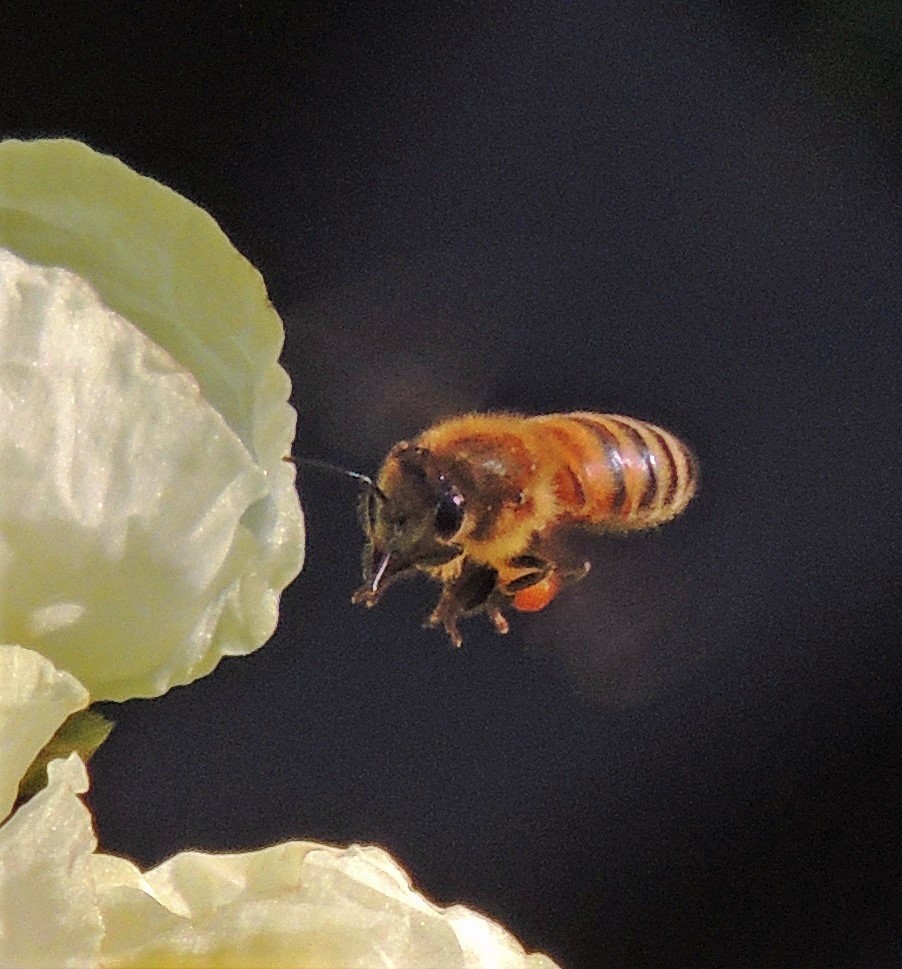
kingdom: Animalia
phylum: Arthropoda
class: Insecta
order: Hymenoptera
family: Apidae
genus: Apis
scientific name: Apis mellifera
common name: Honey bee
